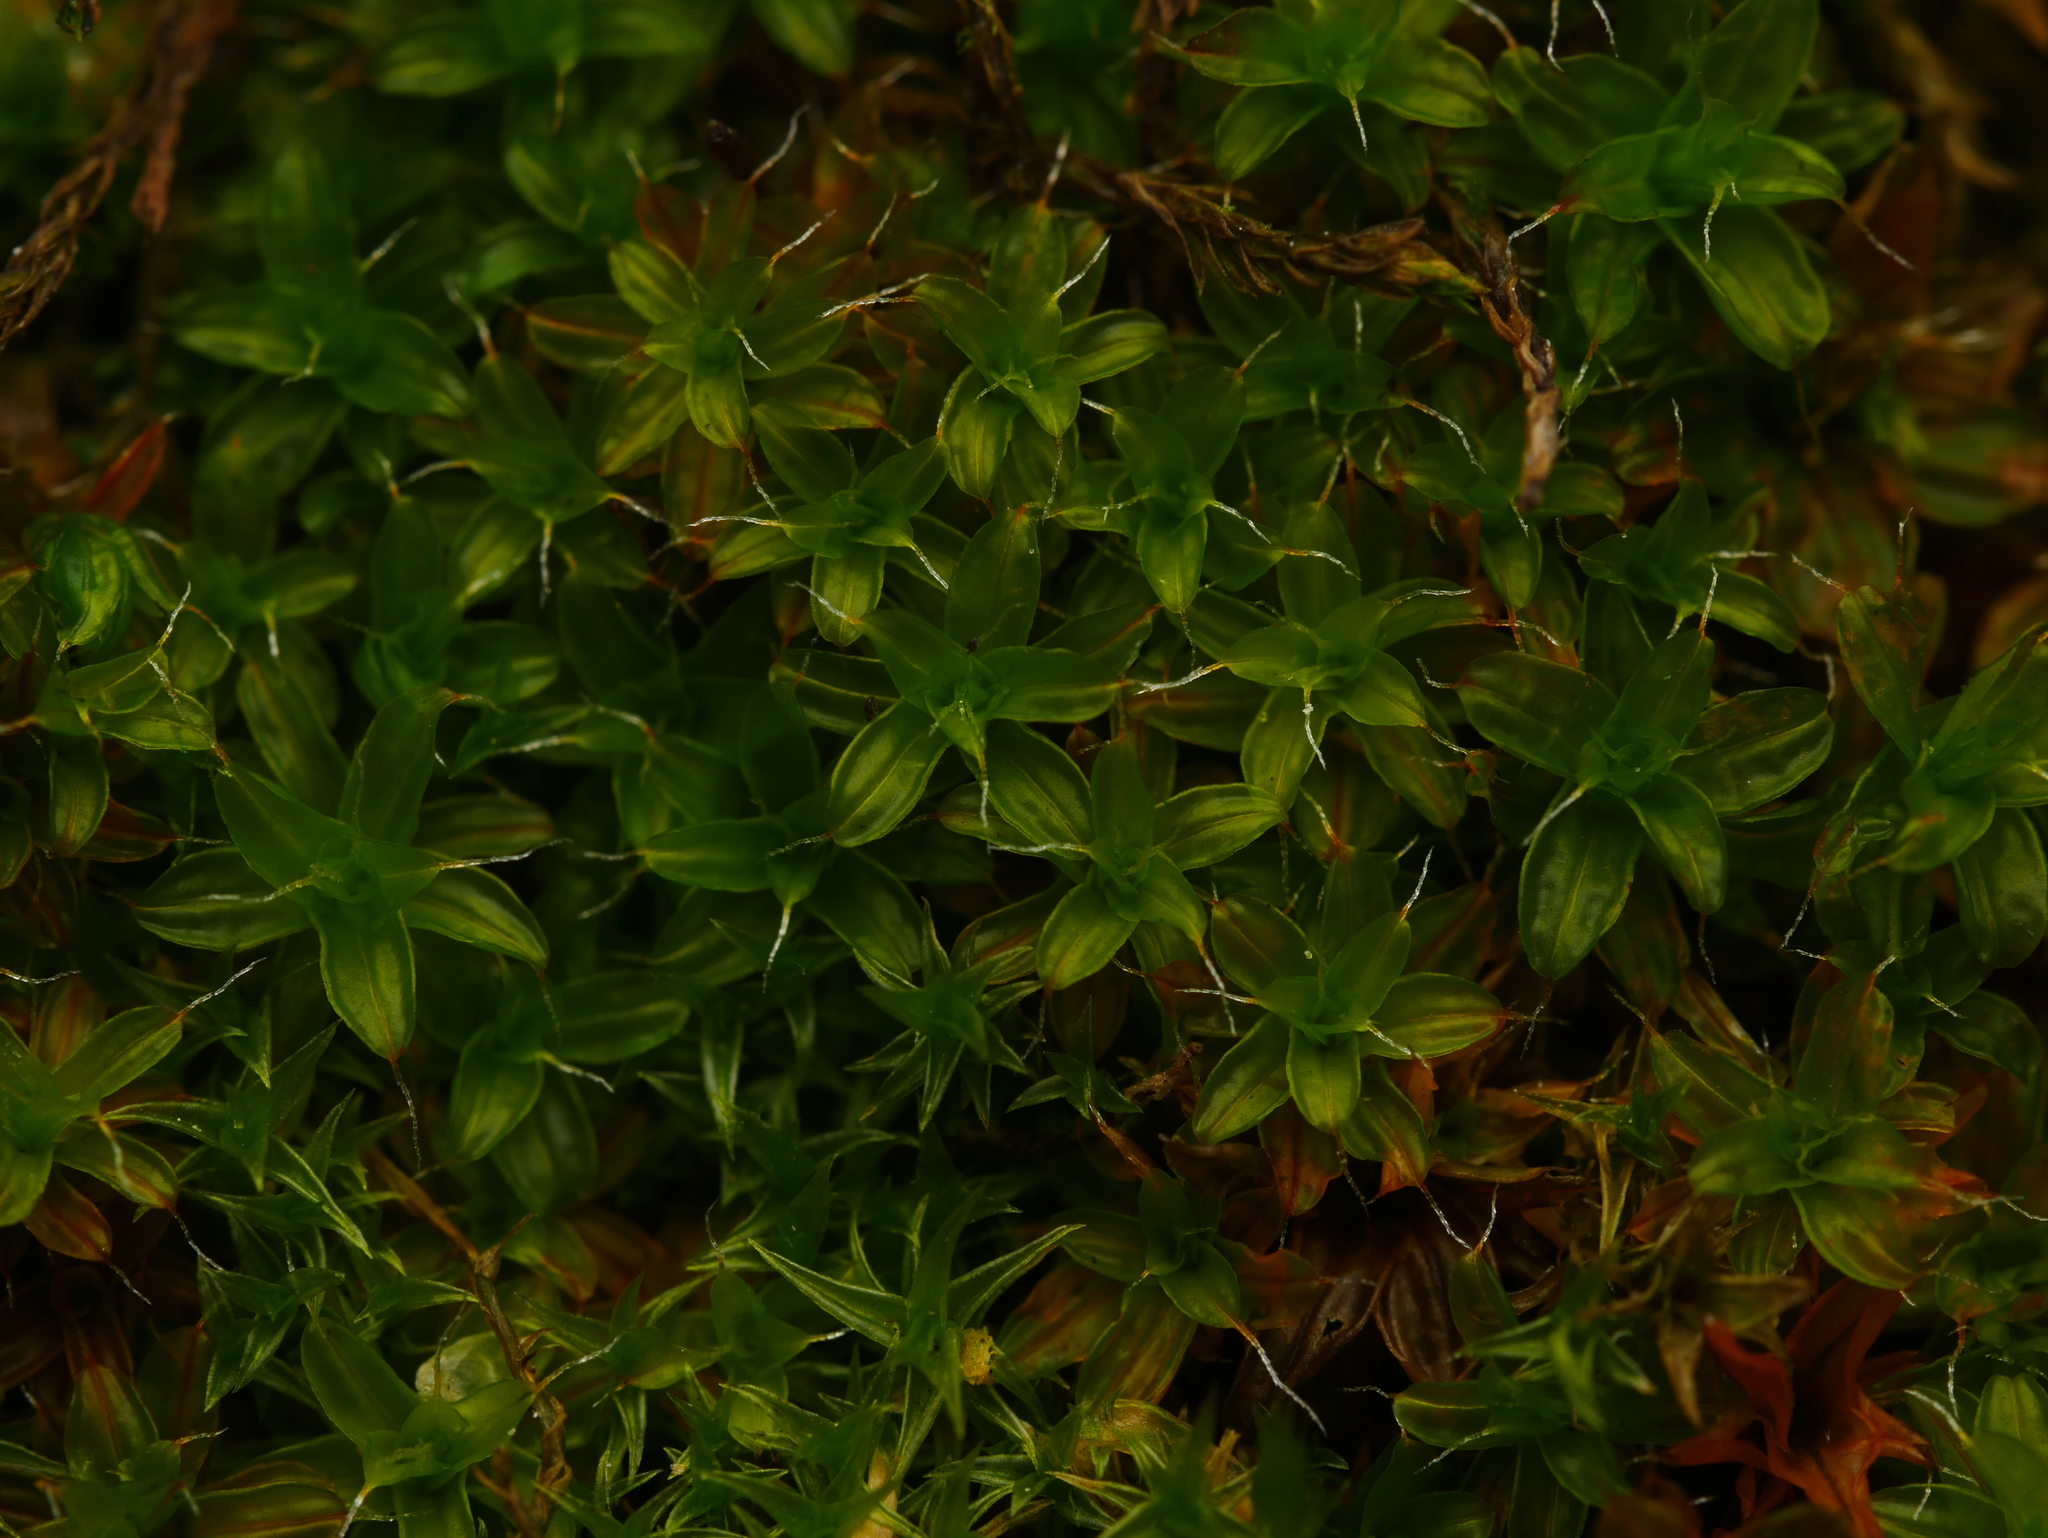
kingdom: Plantae
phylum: Bryophyta
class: Bryopsida
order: Pottiales
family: Pottiaceae
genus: Syntrichia
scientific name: Syntrichia ruralis
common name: Sidewalk screw moss
